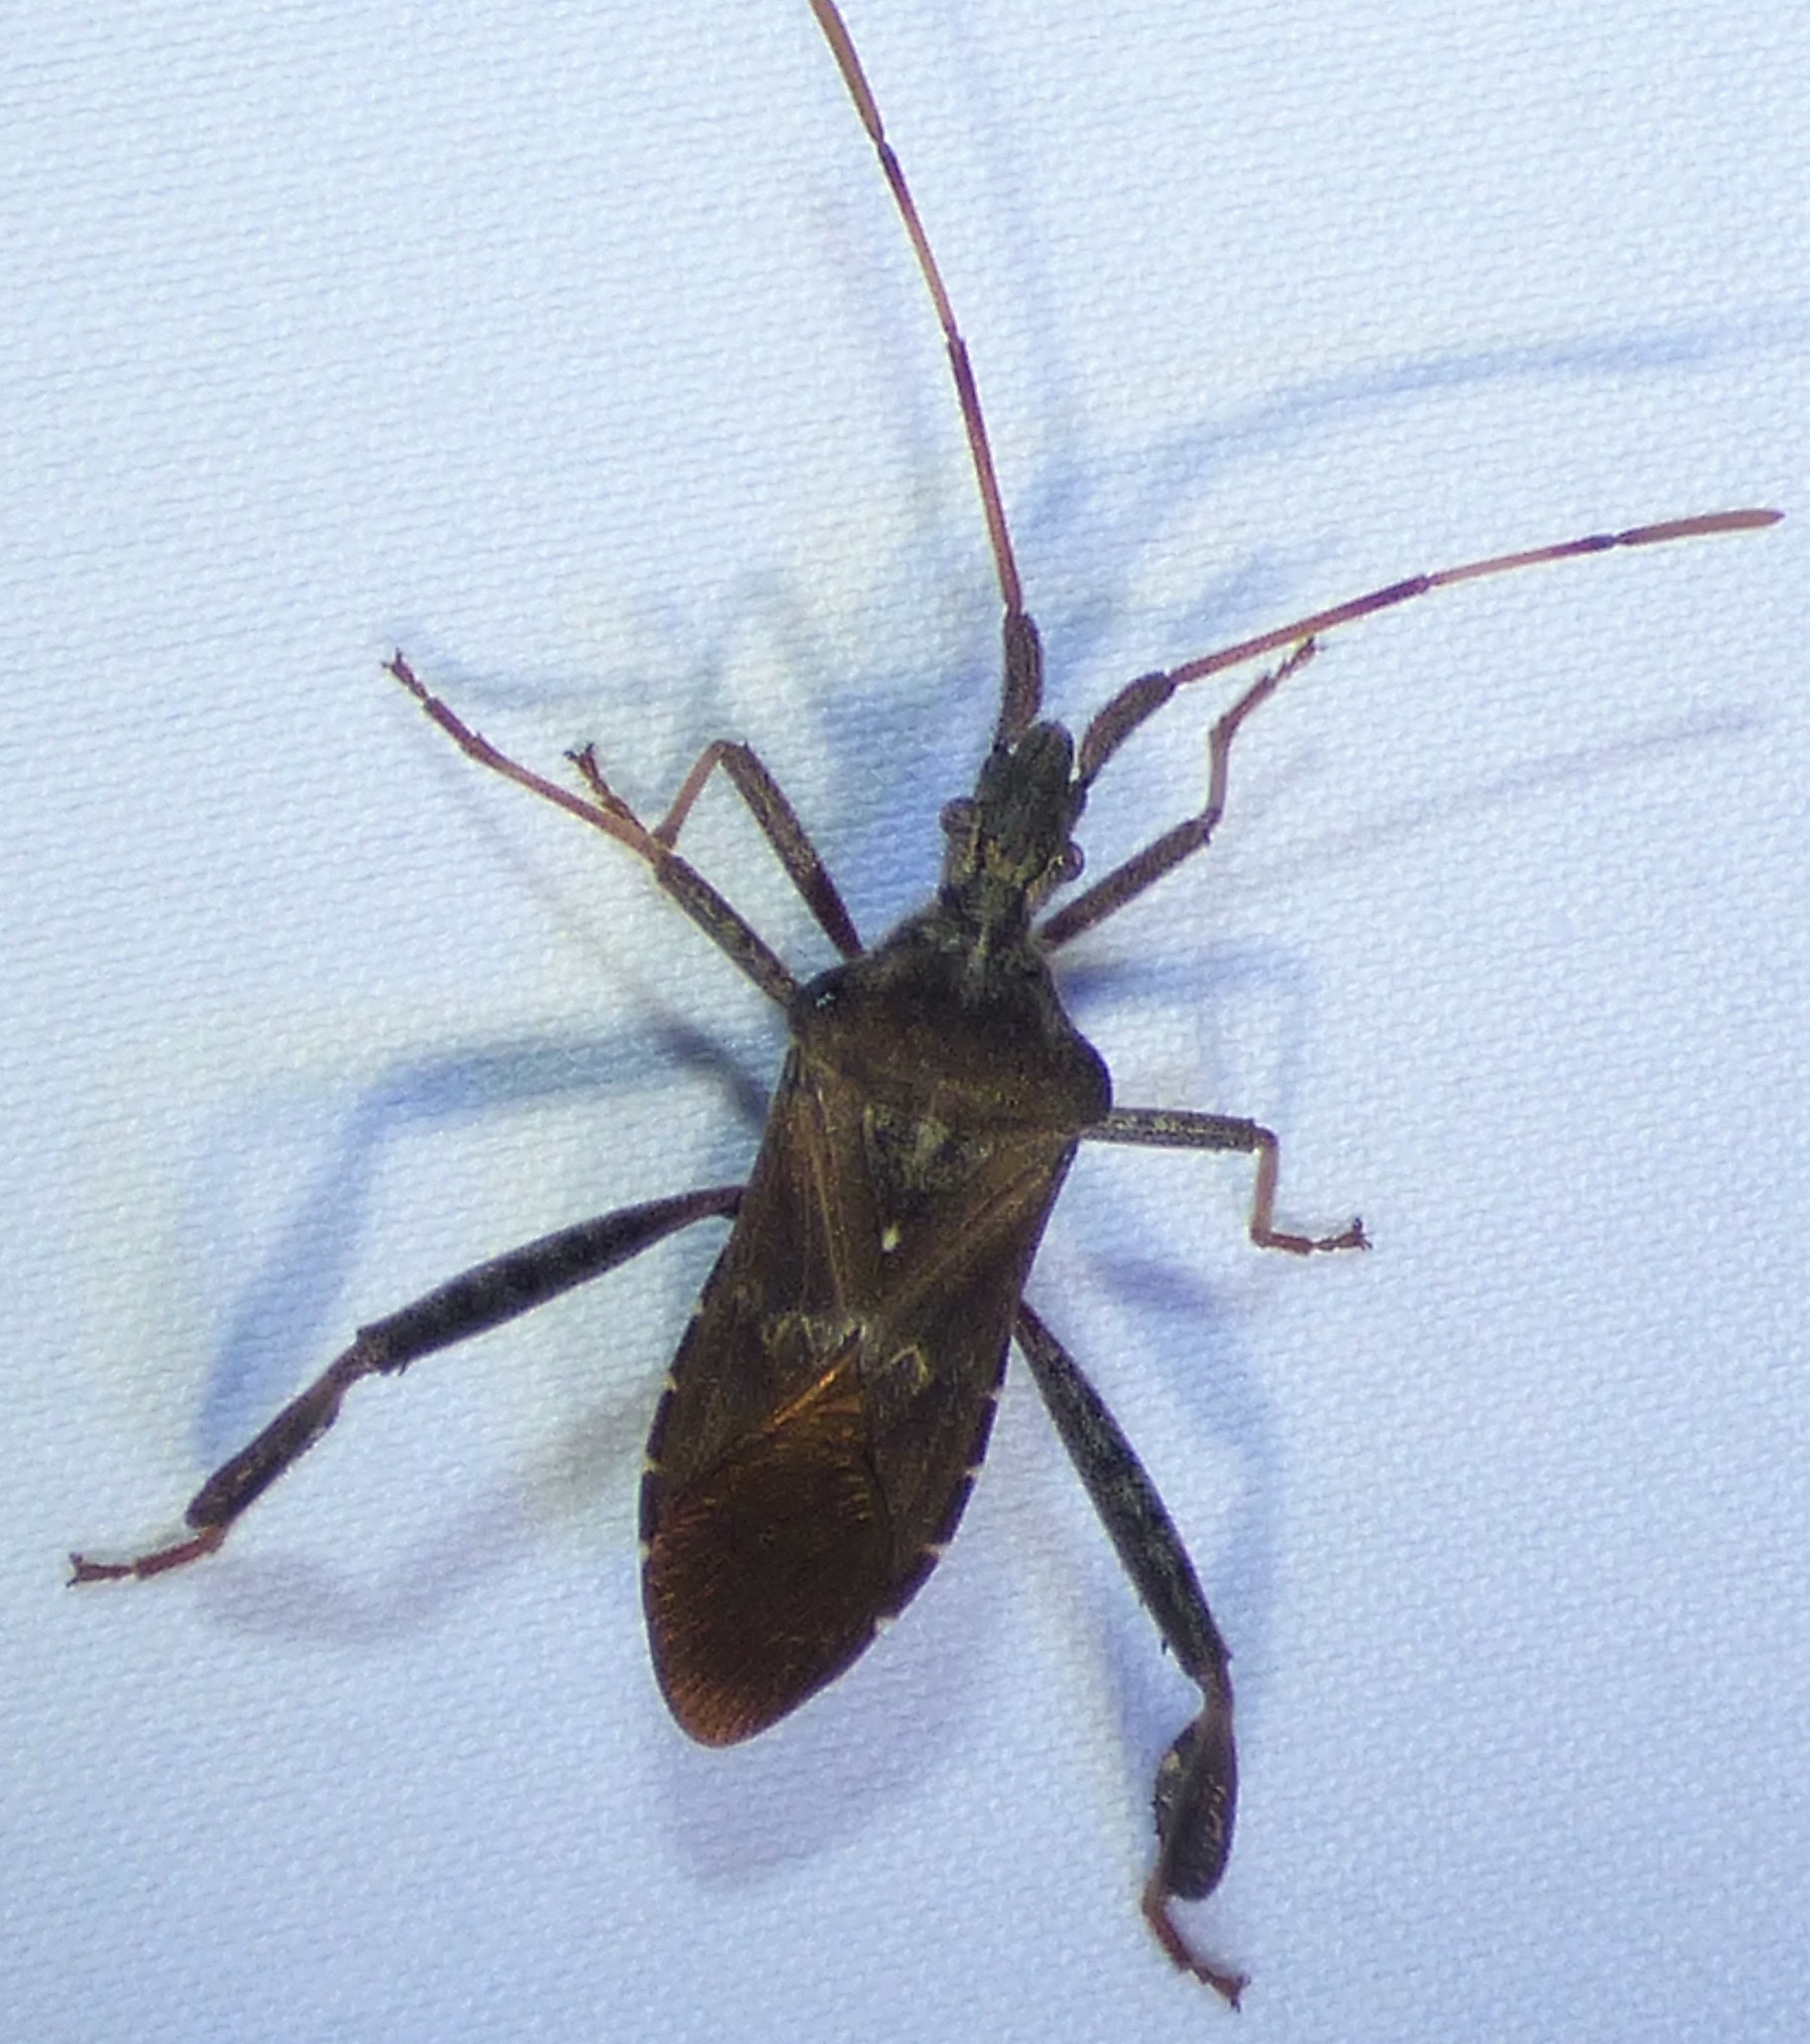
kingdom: Animalia
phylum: Arthropoda
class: Insecta
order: Hemiptera
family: Coreidae
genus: Leptoglossus
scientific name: Leptoglossus corculus
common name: Southern pine seed bug
